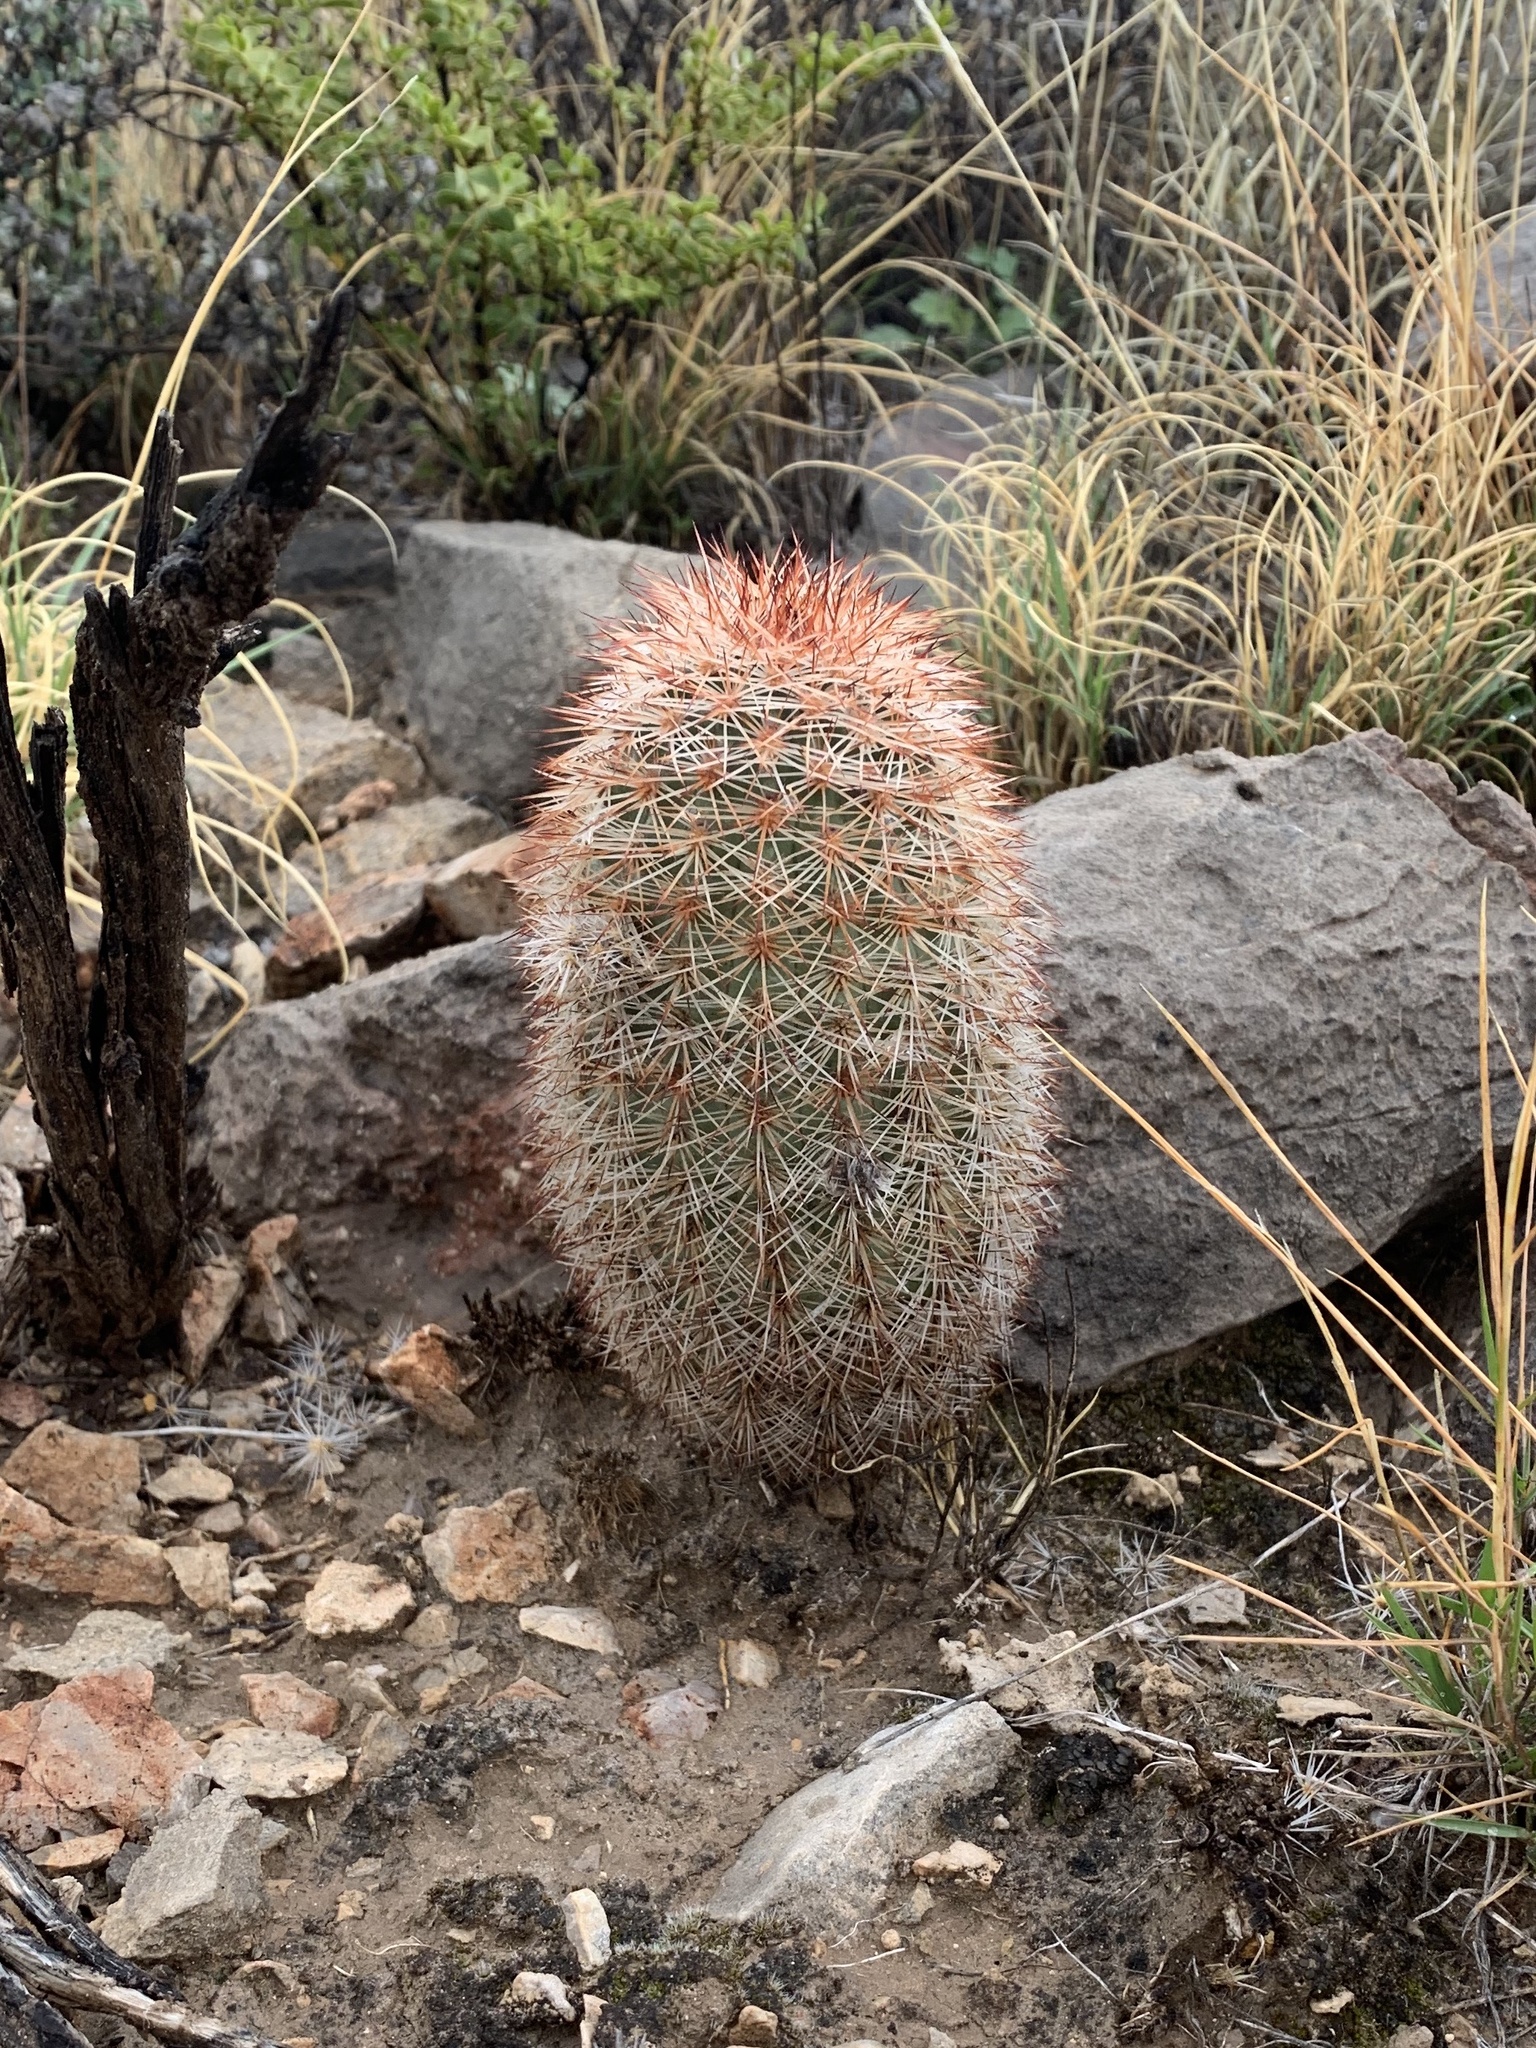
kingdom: Plantae
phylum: Tracheophyta
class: Magnoliopsida
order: Caryophyllales
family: Cactaceae
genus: Echinocereus
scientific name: Echinocereus dasyacanthus
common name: Spiny hedgehog cactus
